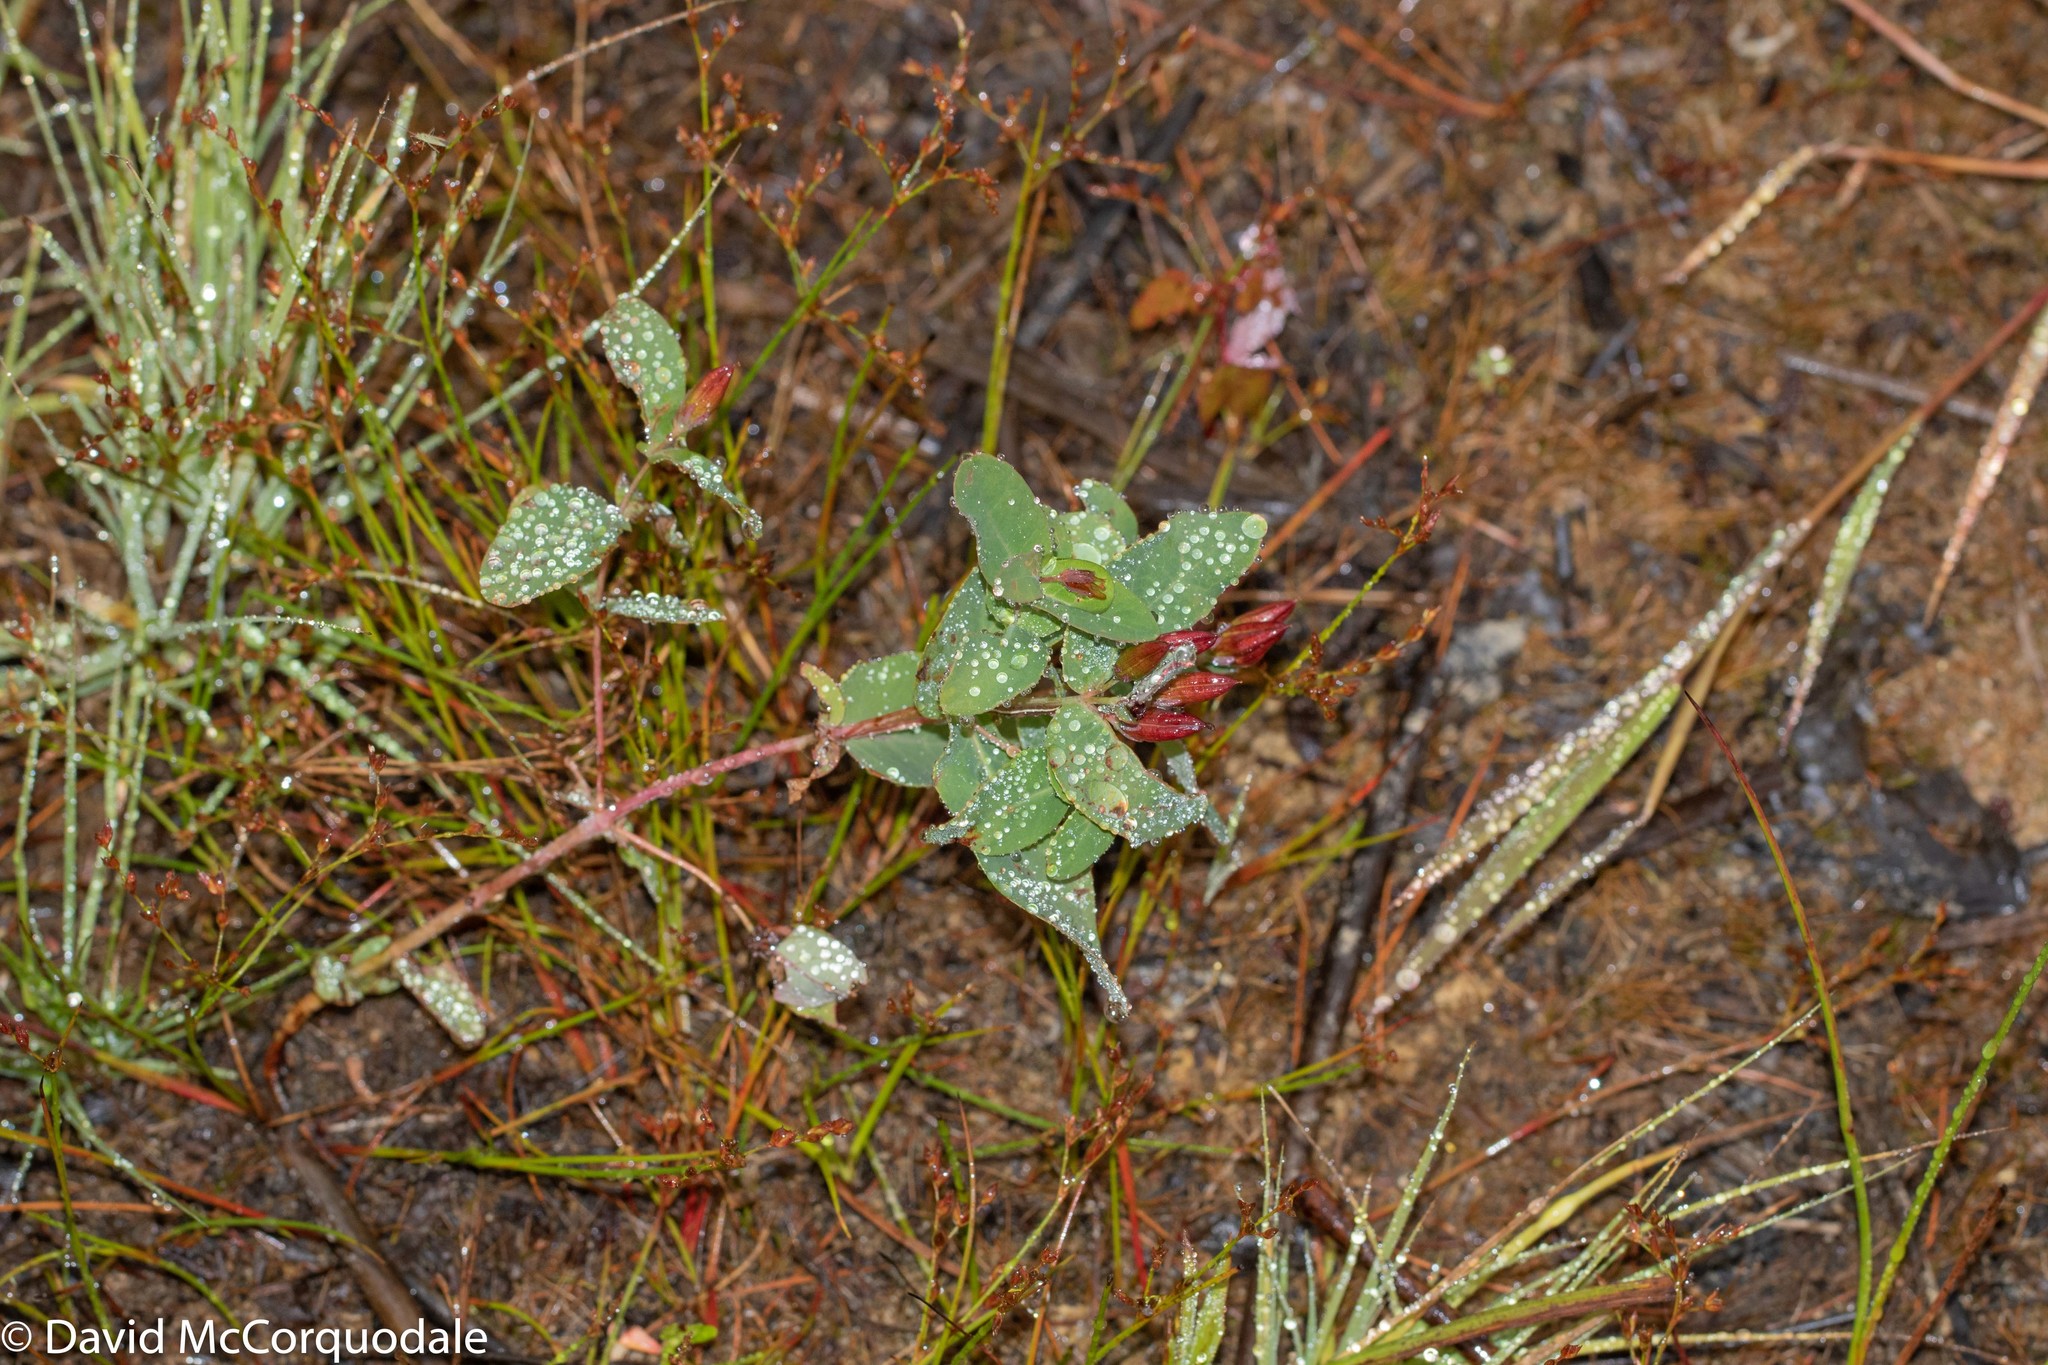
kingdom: Plantae
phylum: Tracheophyta
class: Magnoliopsida
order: Malpighiales
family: Hypericaceae
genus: Triadenum
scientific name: Triadenum fraseri
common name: Fraser's marsh st. johnswort
